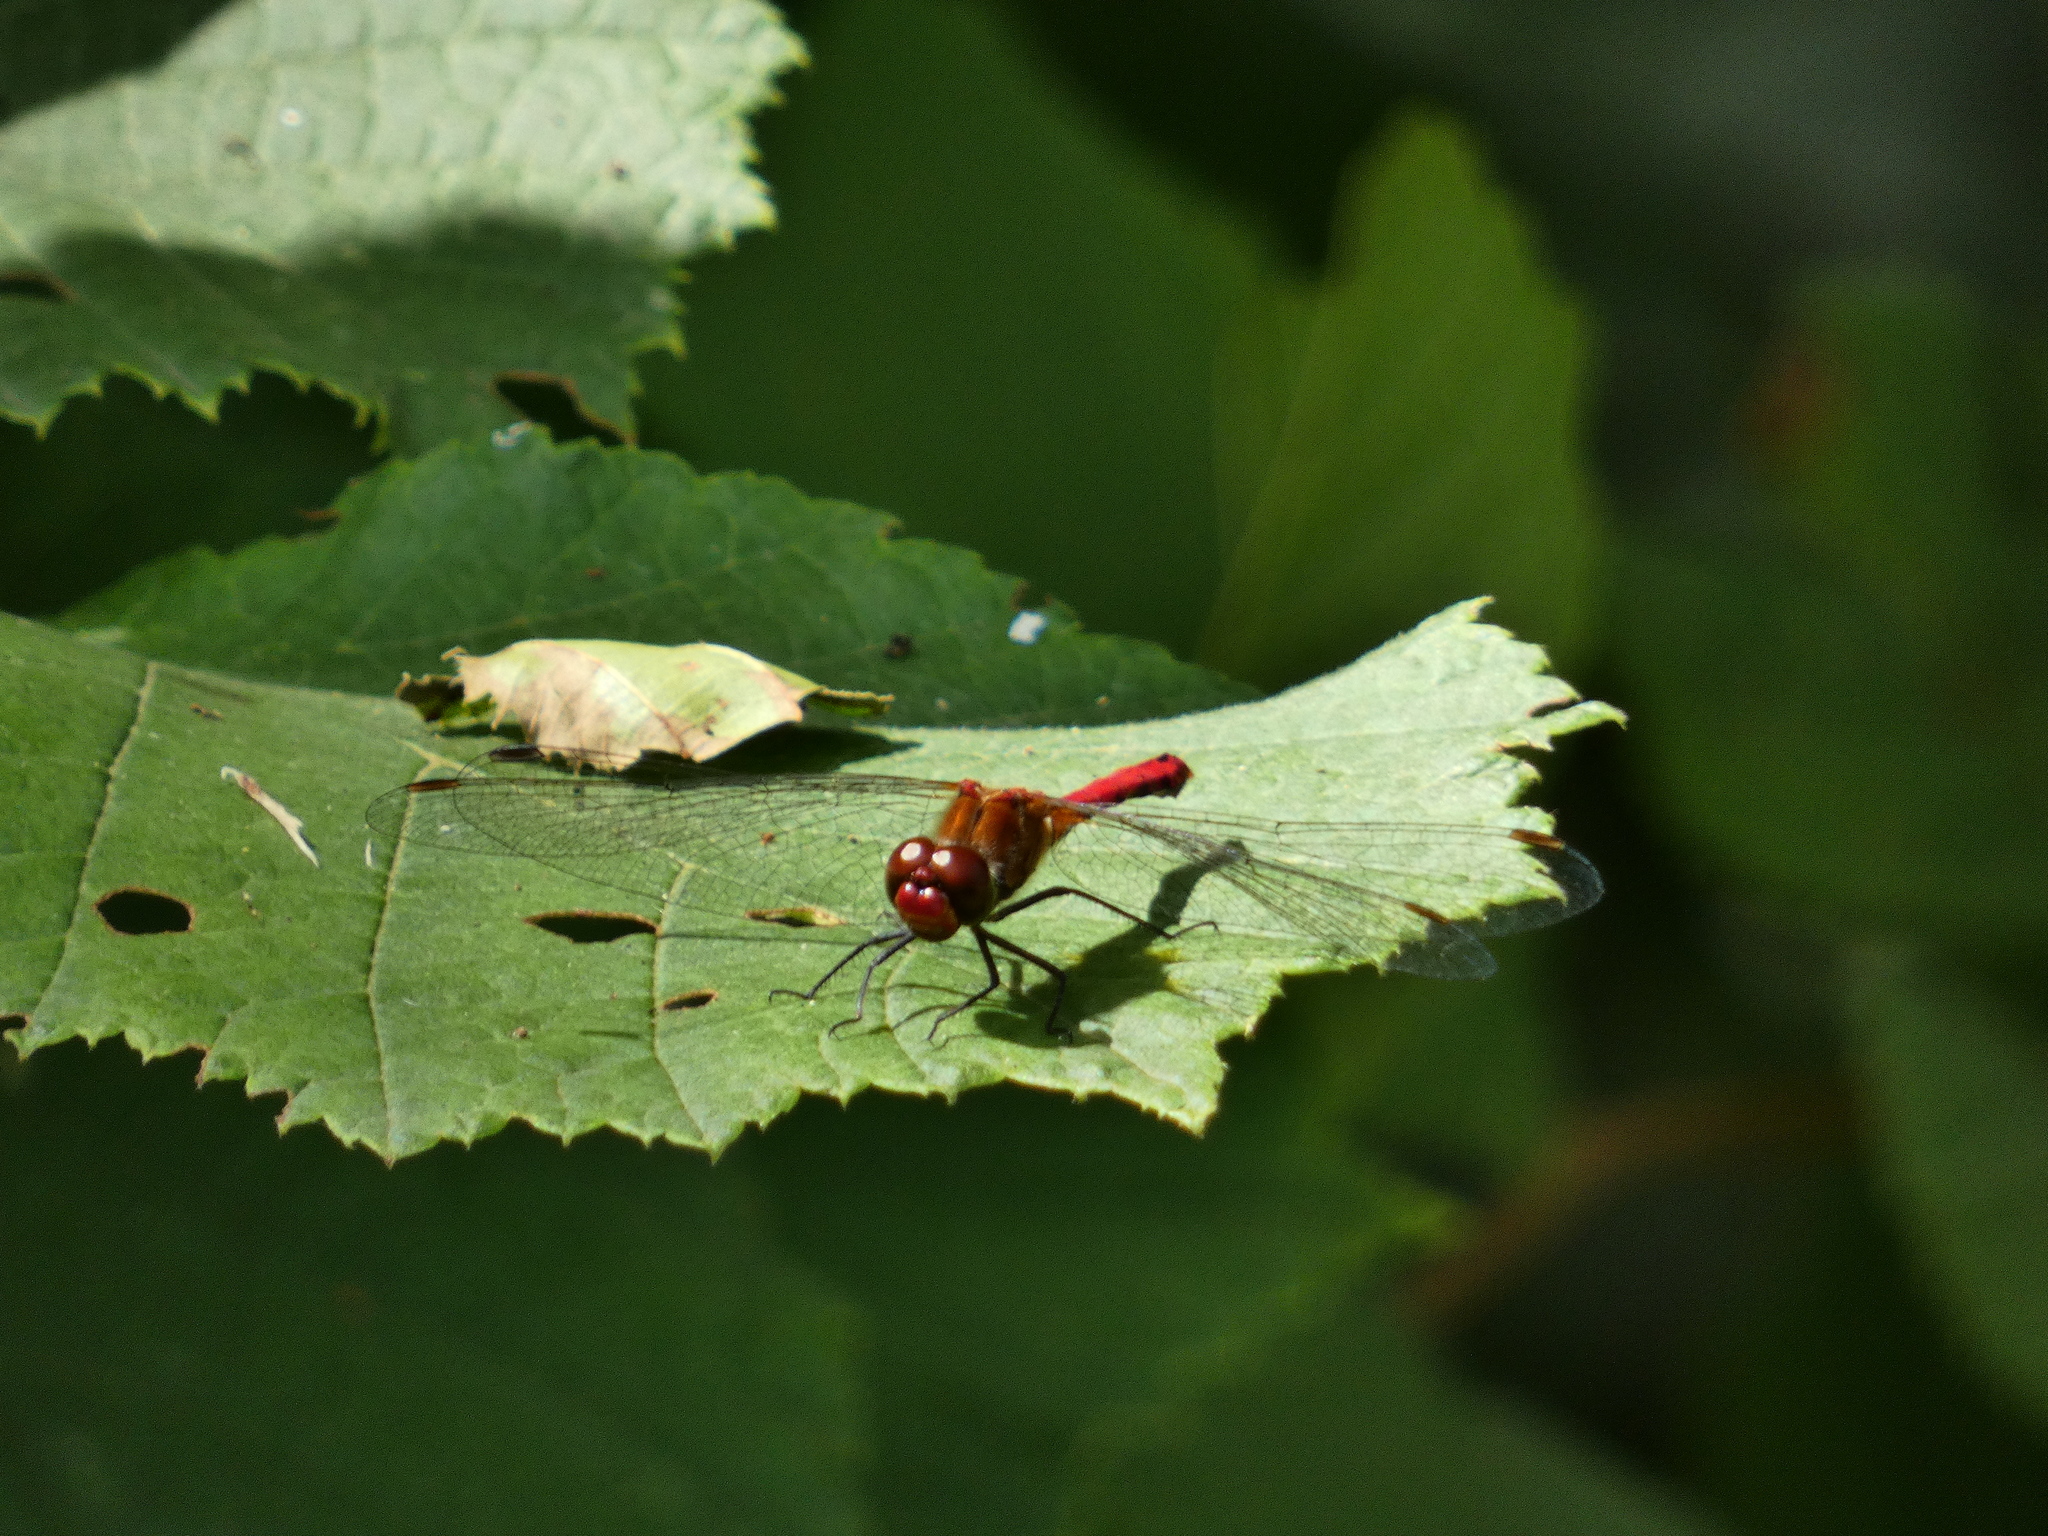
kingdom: Animalia
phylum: Arthropoda
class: Insecta
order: Odonata
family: Libellulidae
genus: Sympetrum
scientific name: Sympetrum sanguineum
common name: Ruddy darter
